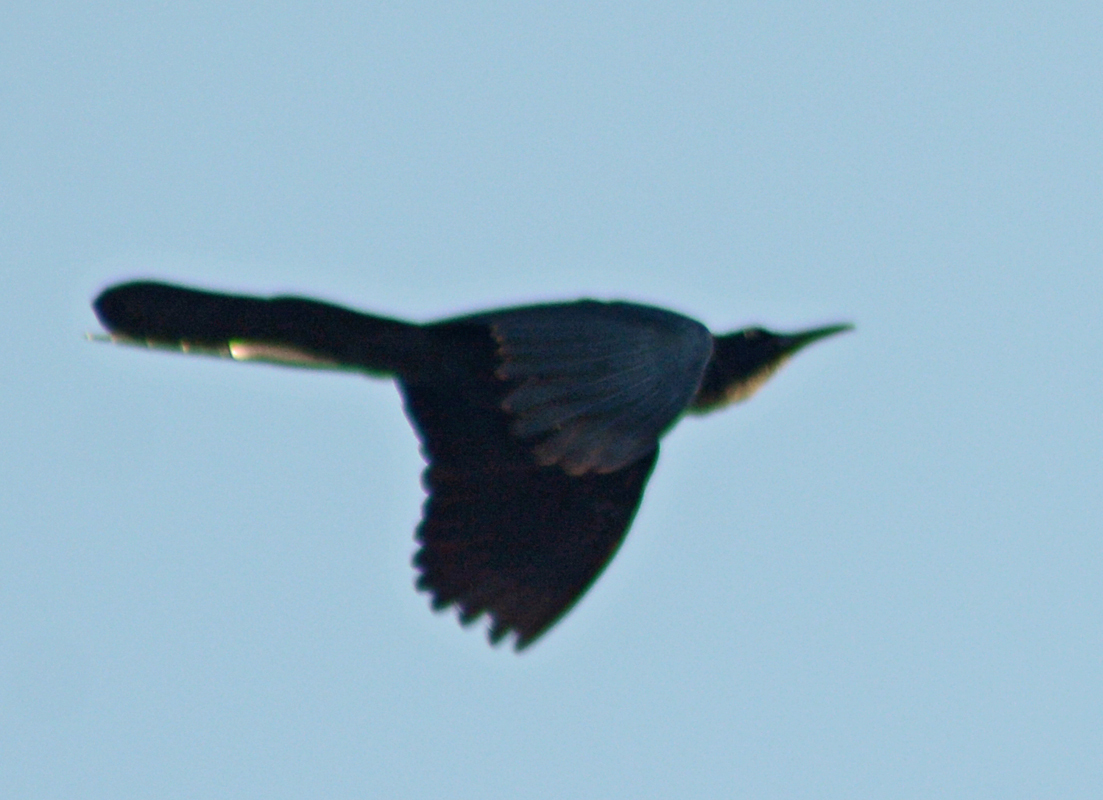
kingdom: Animalia
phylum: Chordata
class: Aves
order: Passeriformes
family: Icteridae
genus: Quiscalus
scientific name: Quiscalus mexicanus
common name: Great-tailed grackle
